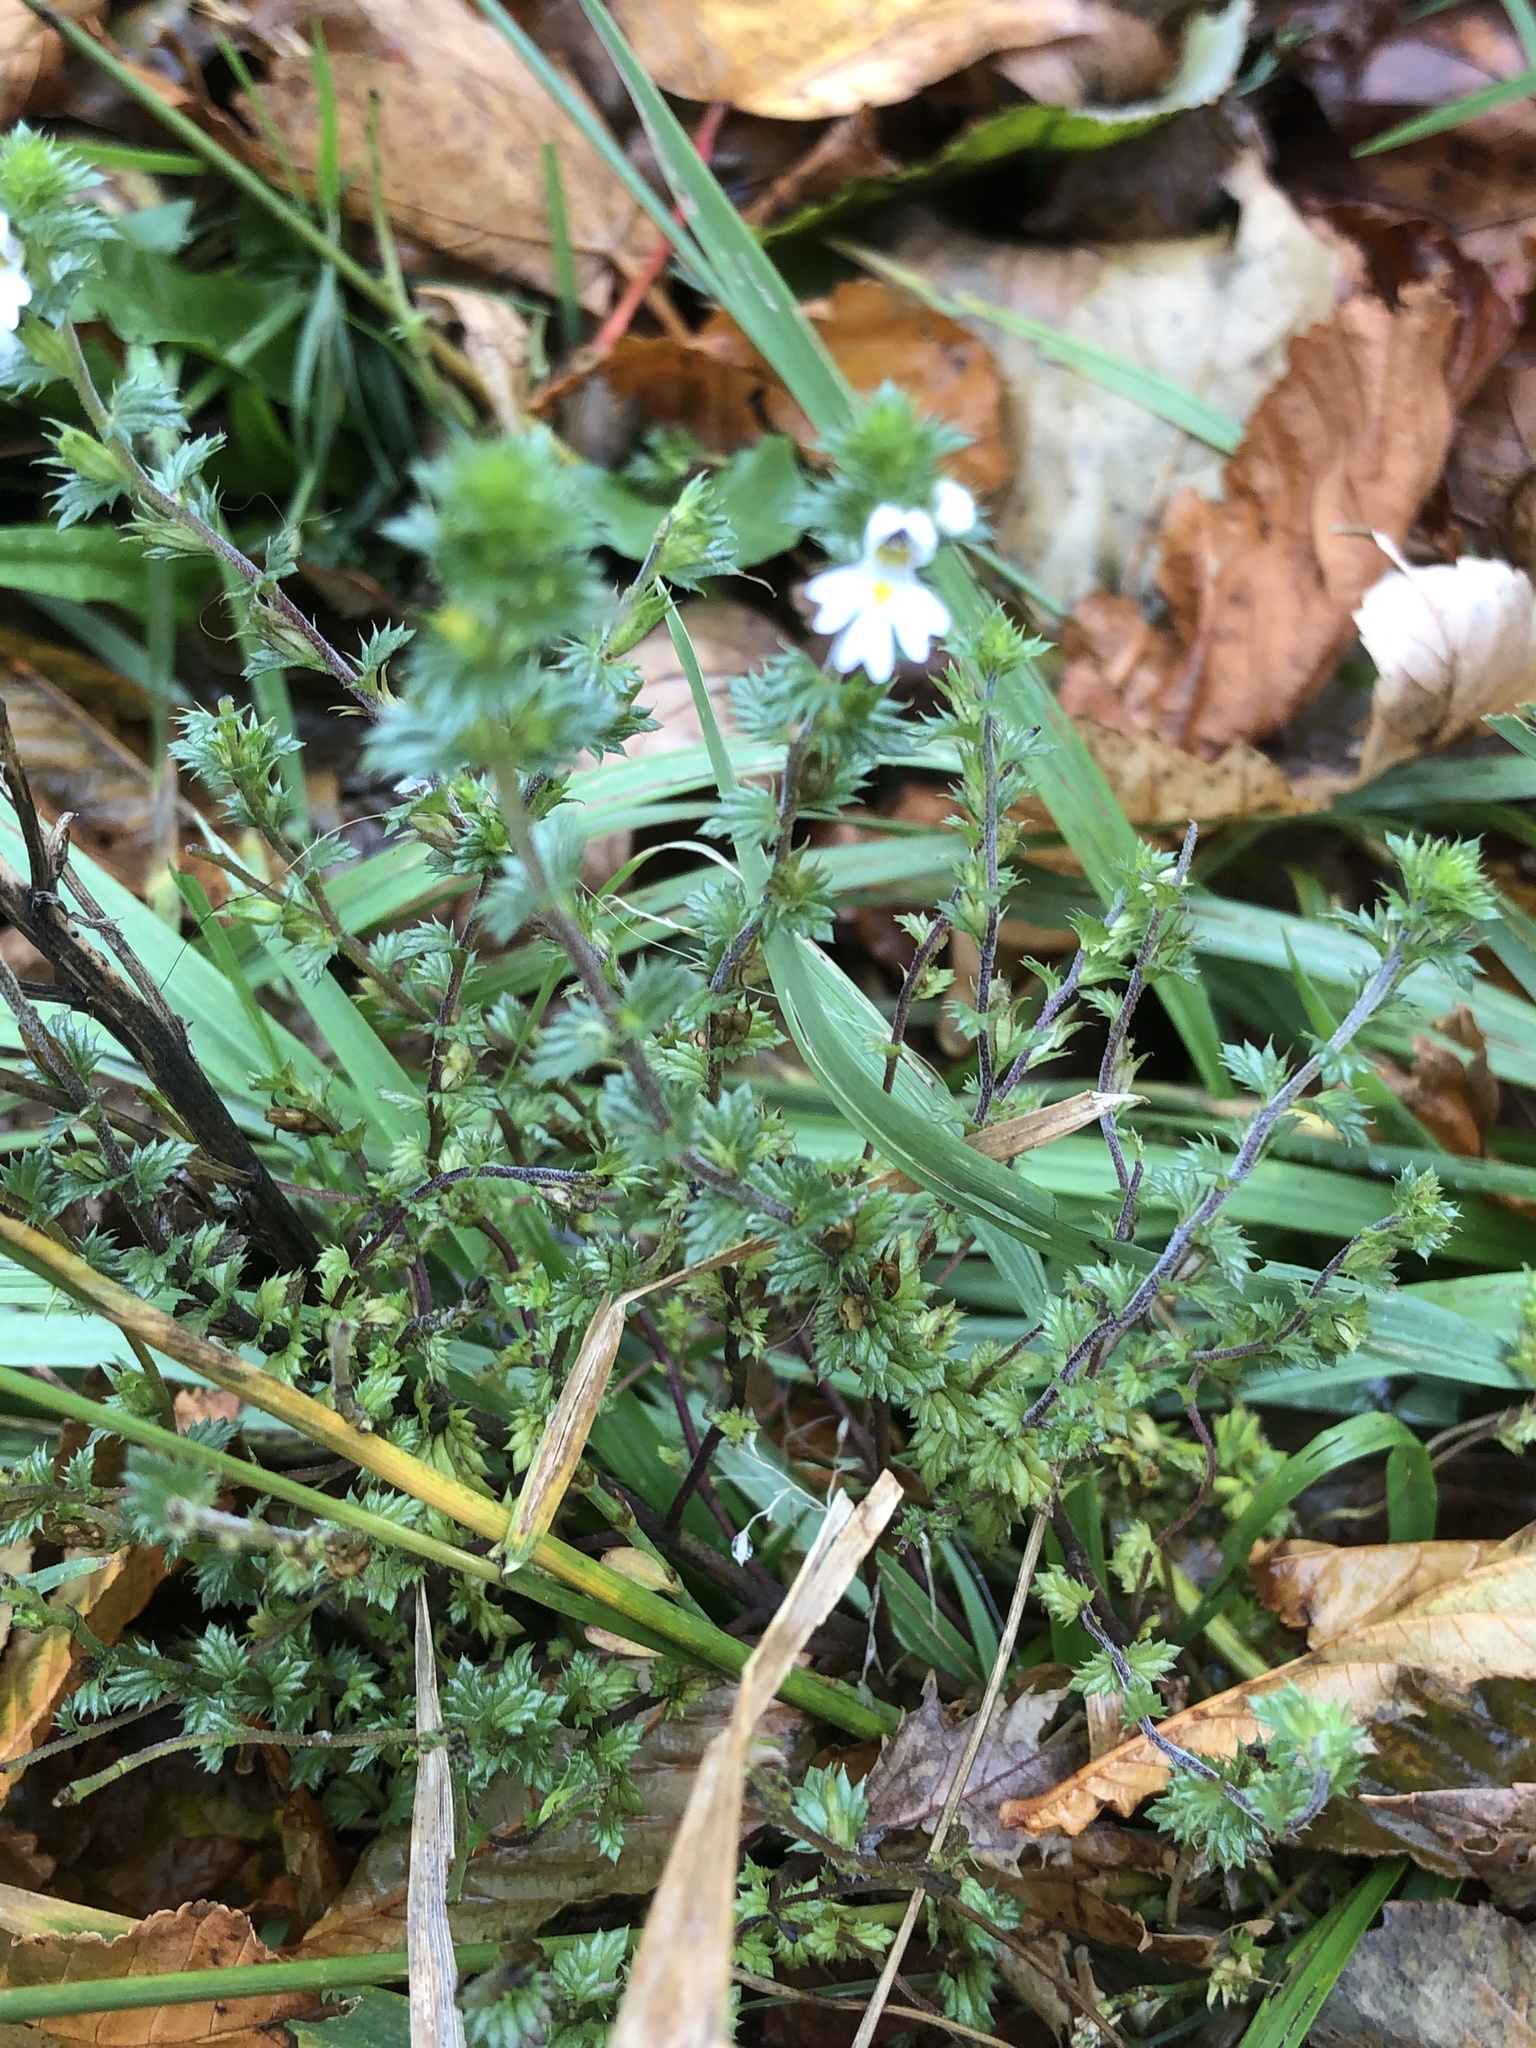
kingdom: Plantae
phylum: Tracheophyta
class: Magnoliopsida
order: Lamiales
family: Orobanchaceae
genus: Euphrasia
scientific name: Euphrasia nemorosa
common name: Common eyebright
